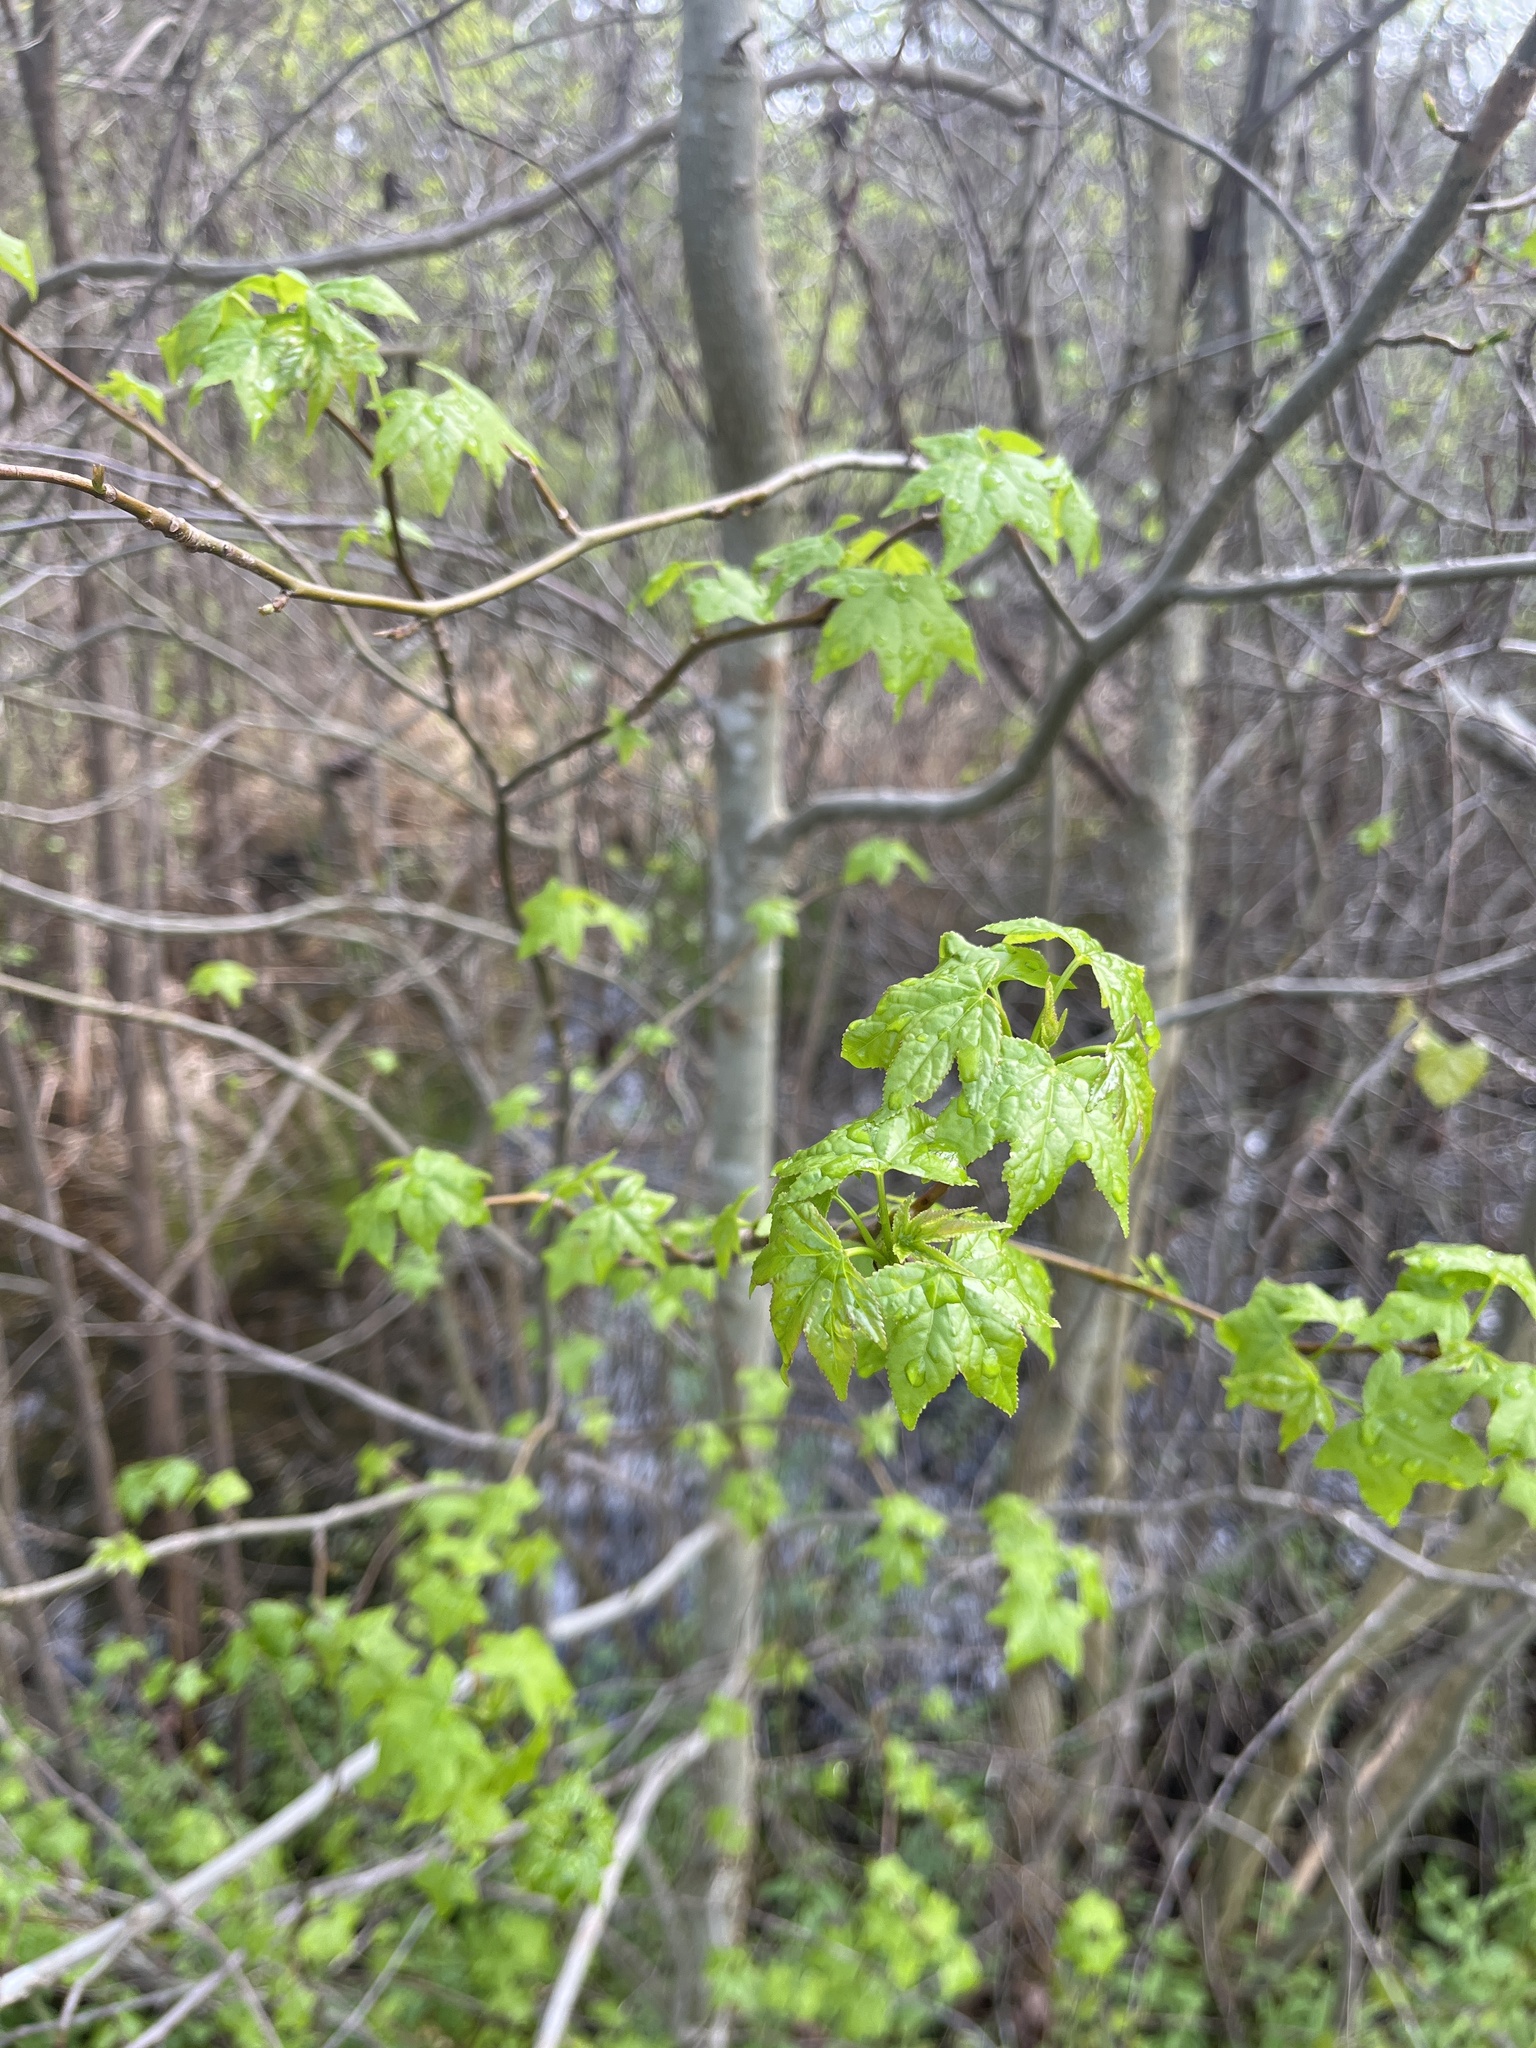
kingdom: Plantae
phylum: Tracheophyta
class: Magnoliopsida
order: Saxifragales
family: Altingiaceae
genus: Liquidambar
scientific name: Liquidambar styraciflua
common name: Sweet gum
